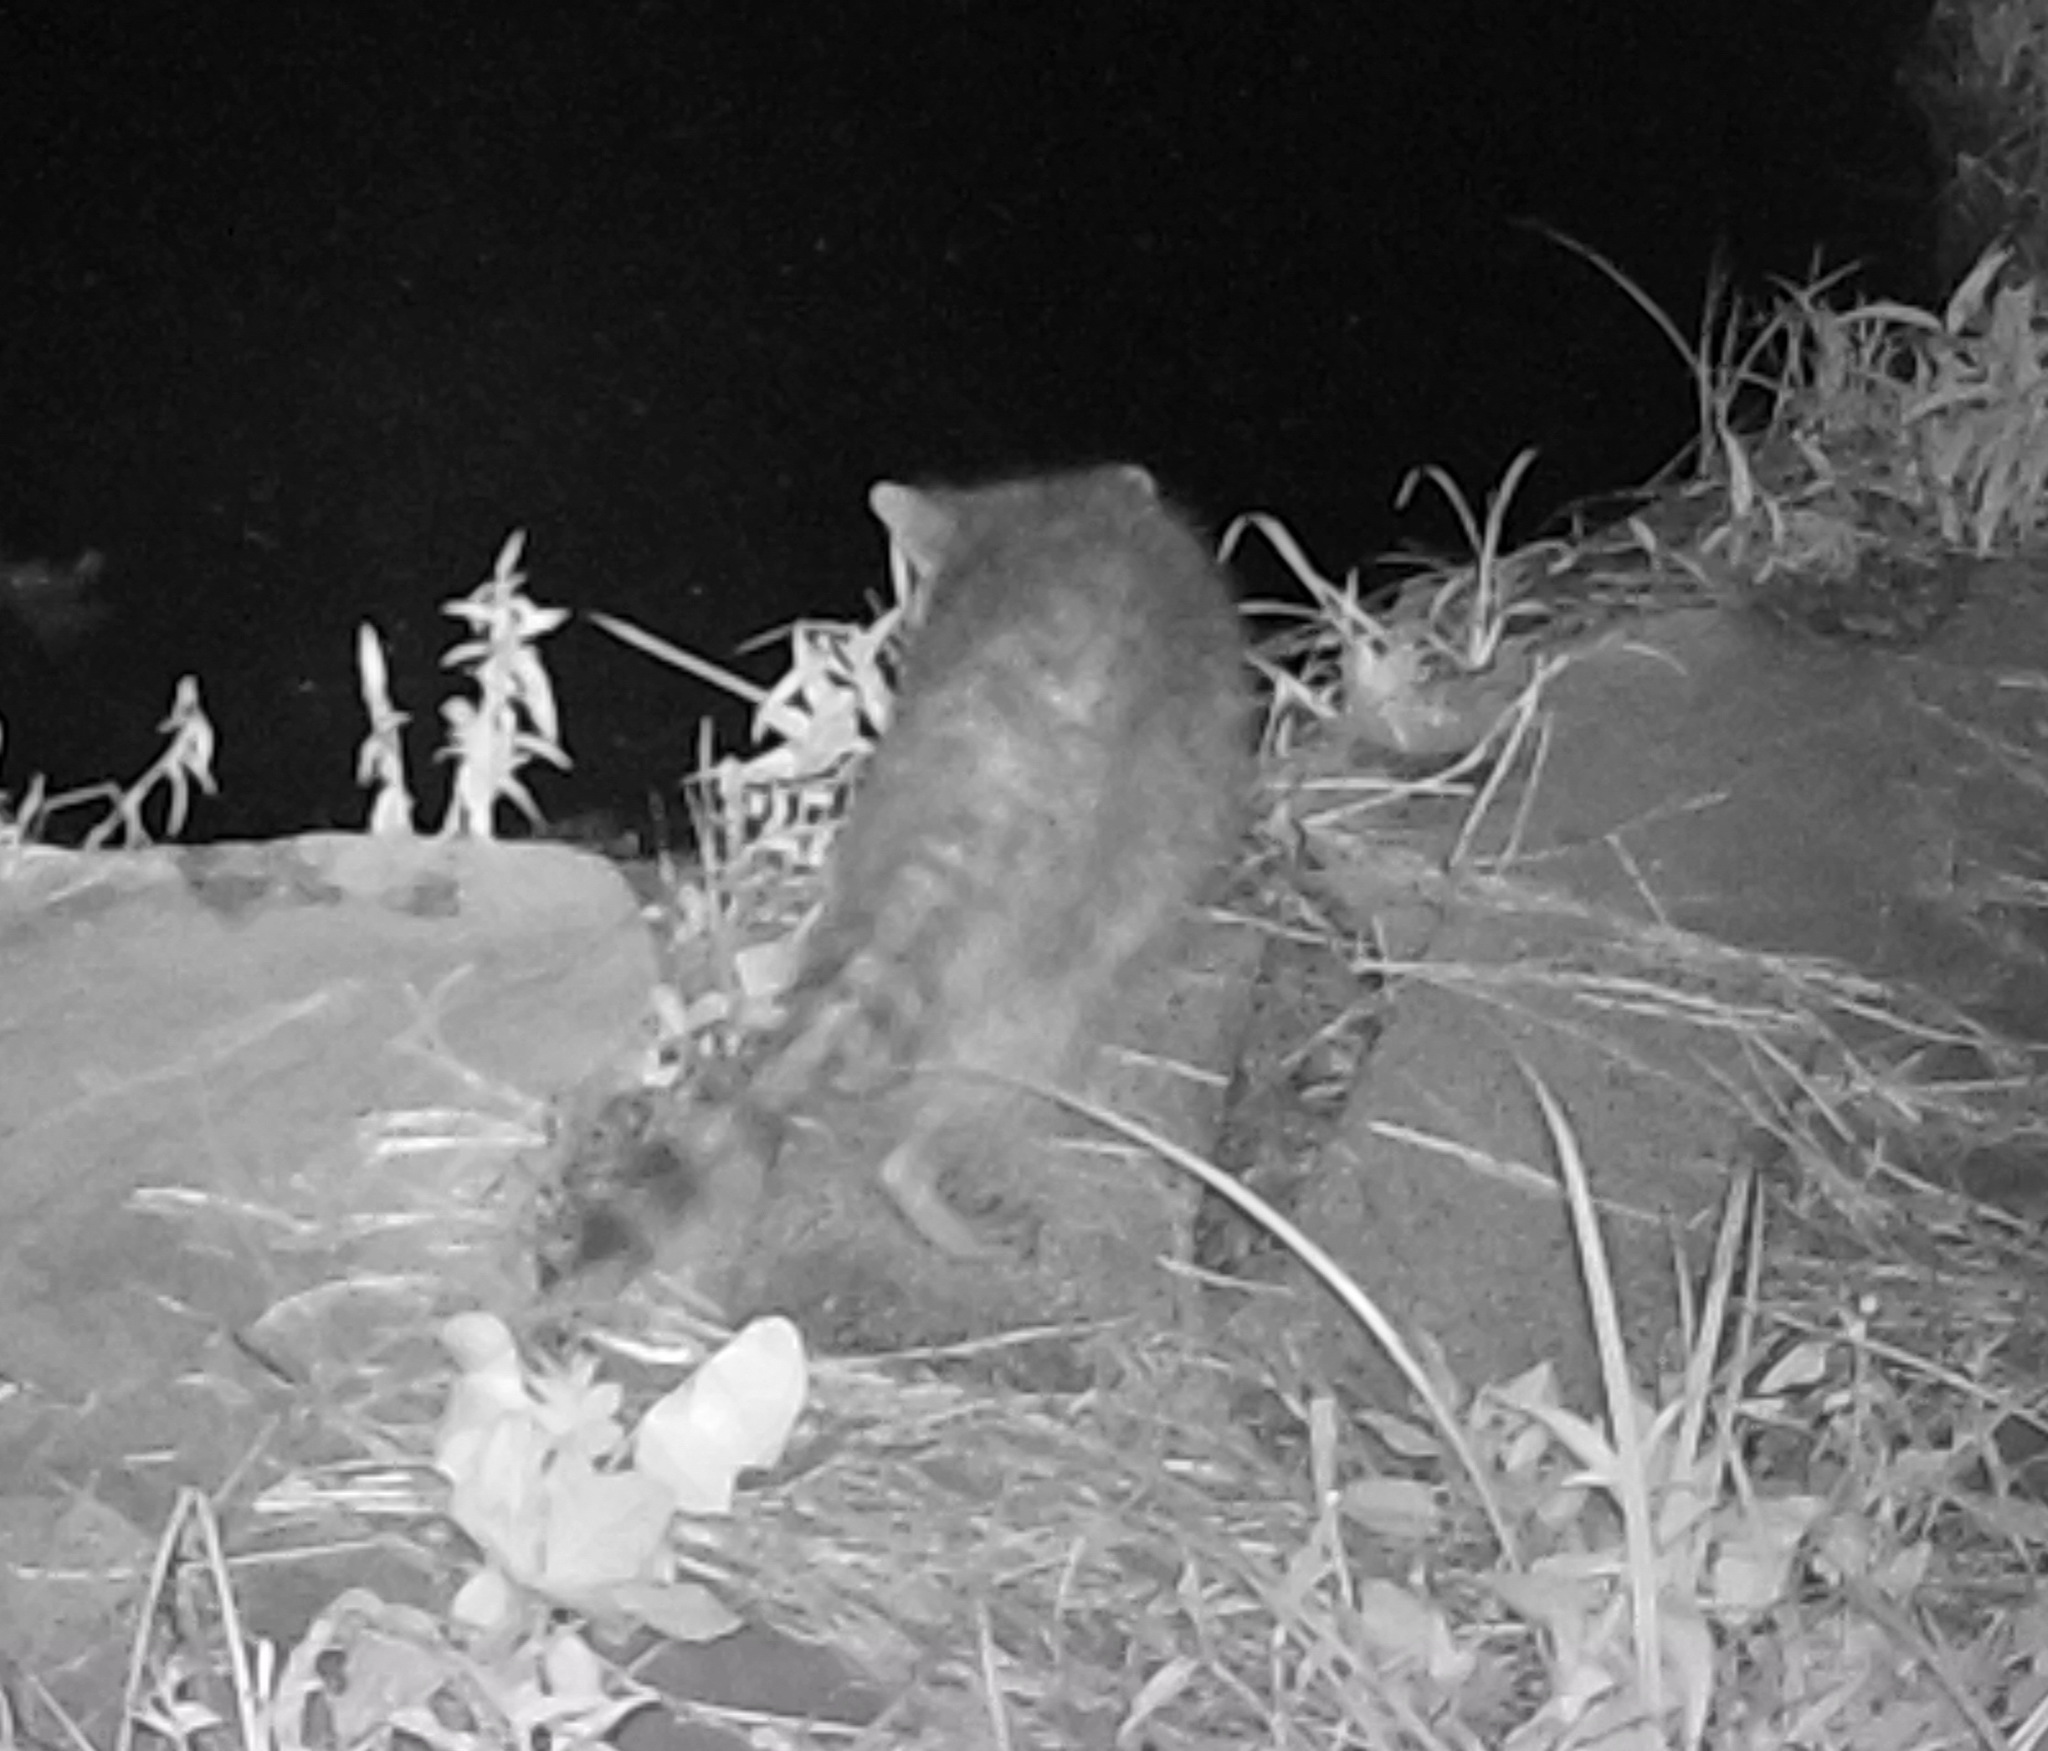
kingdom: Animalia
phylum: Chordata
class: Mammalia
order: Carnivora
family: Procyonidae
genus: Procyon
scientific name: Procyon lotor
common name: Raccoon
